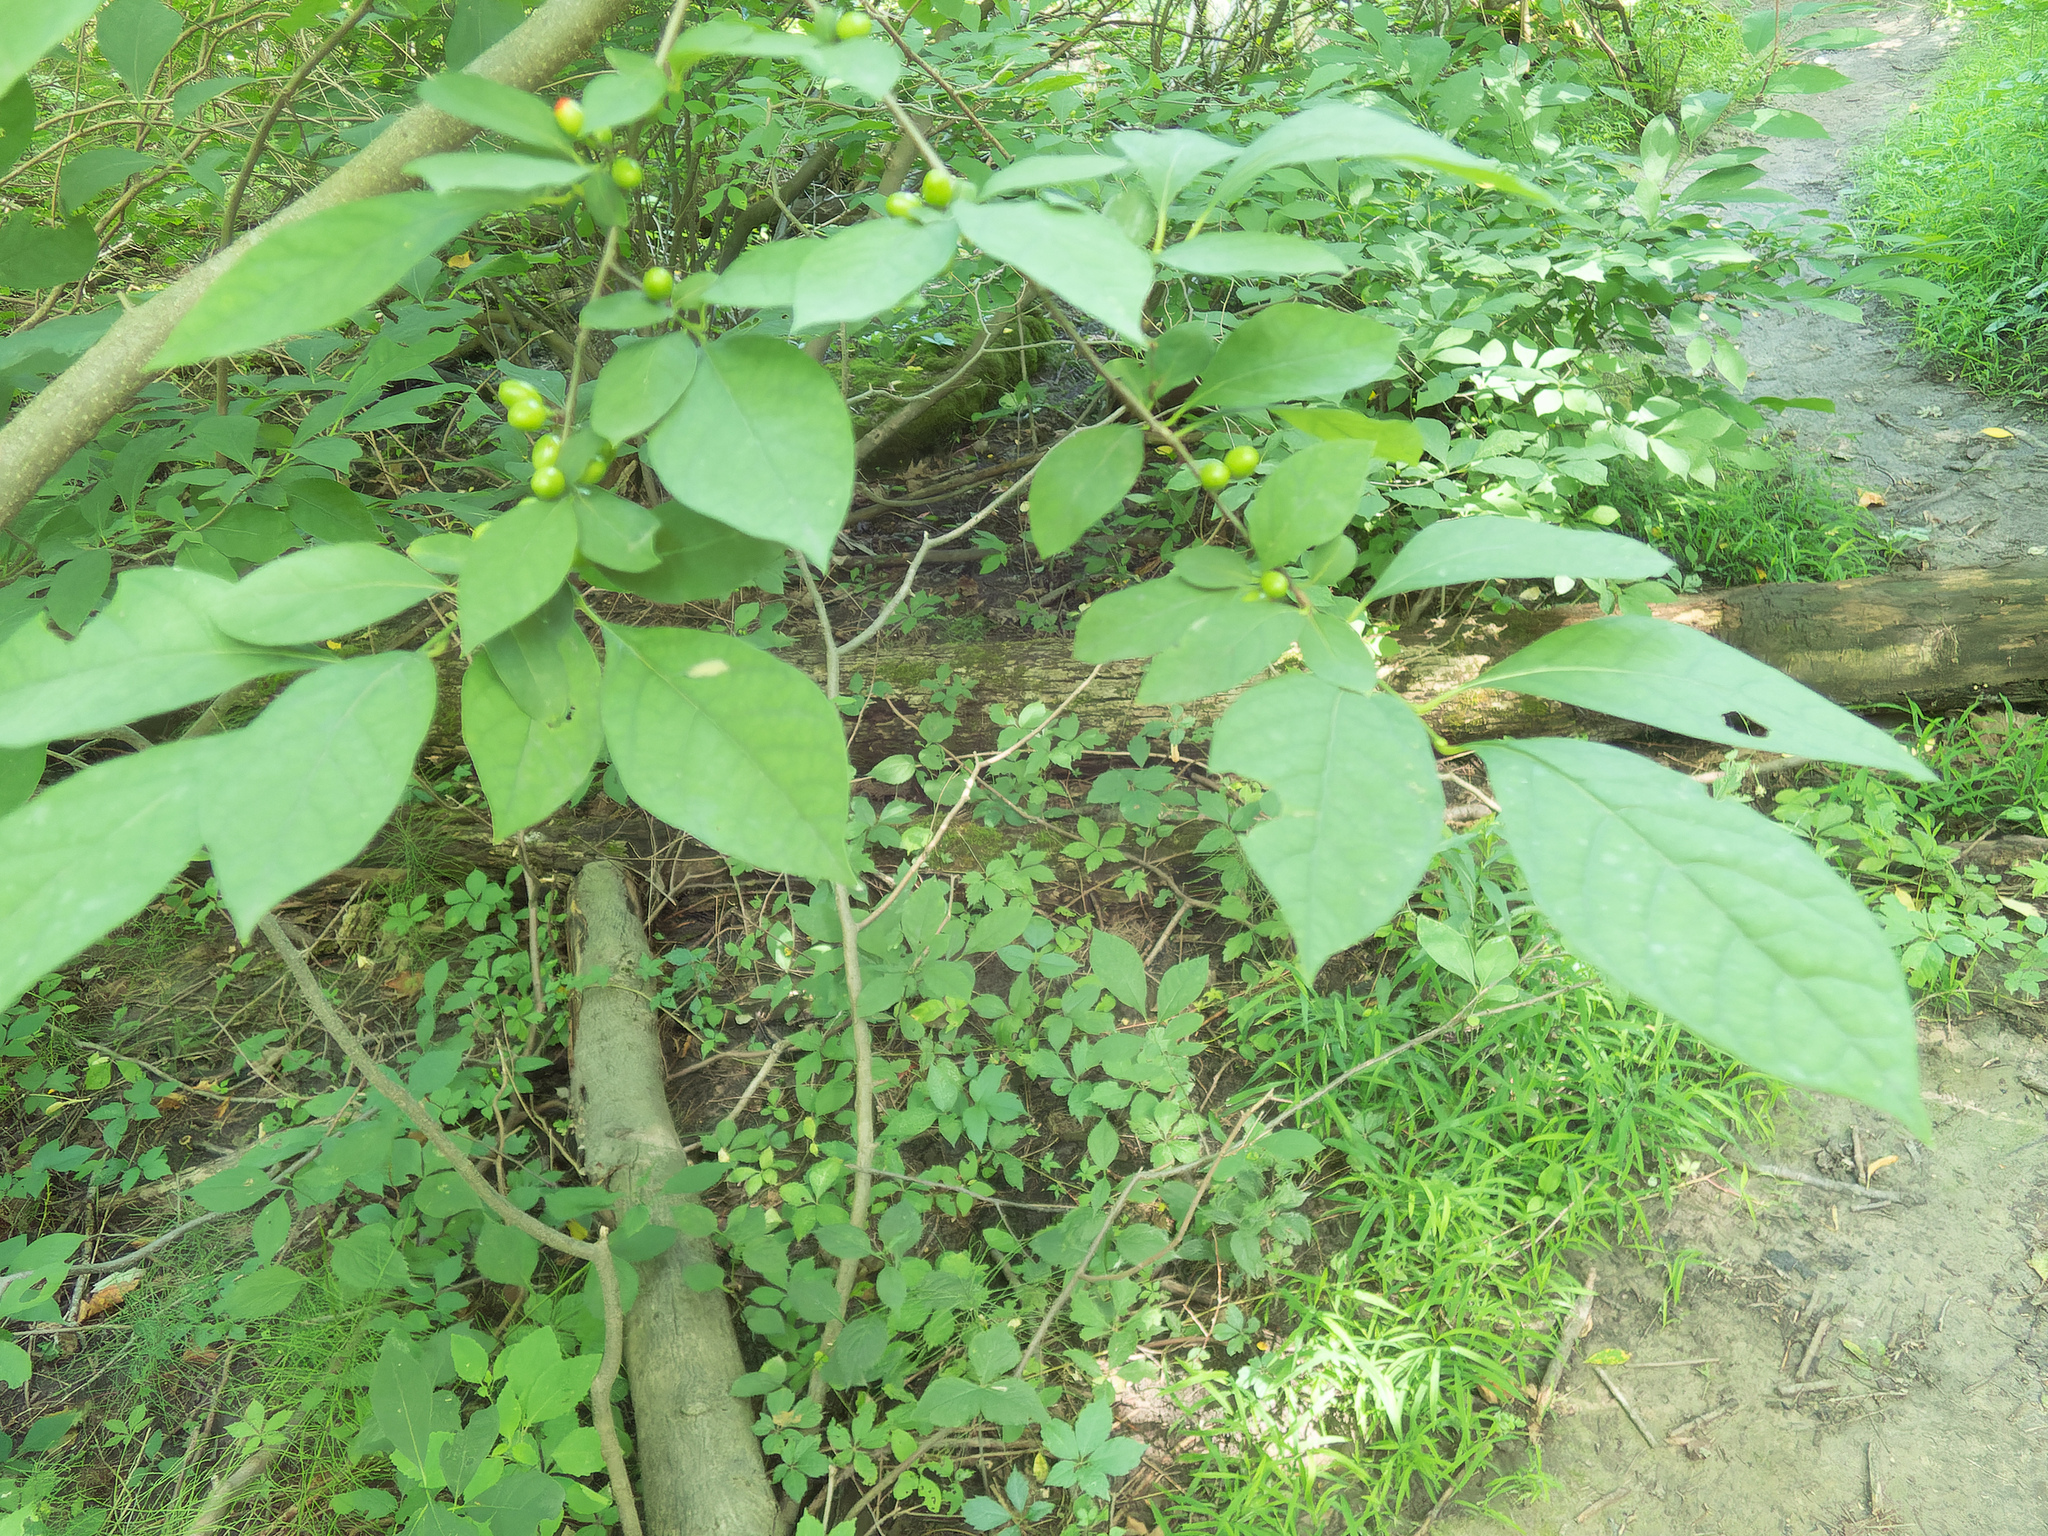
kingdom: Plantae
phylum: Tracheophyta
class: Magnoliopsida
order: Laurales
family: Lauraceae
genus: Lindera
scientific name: Lindera benzoin
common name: Spicebush
